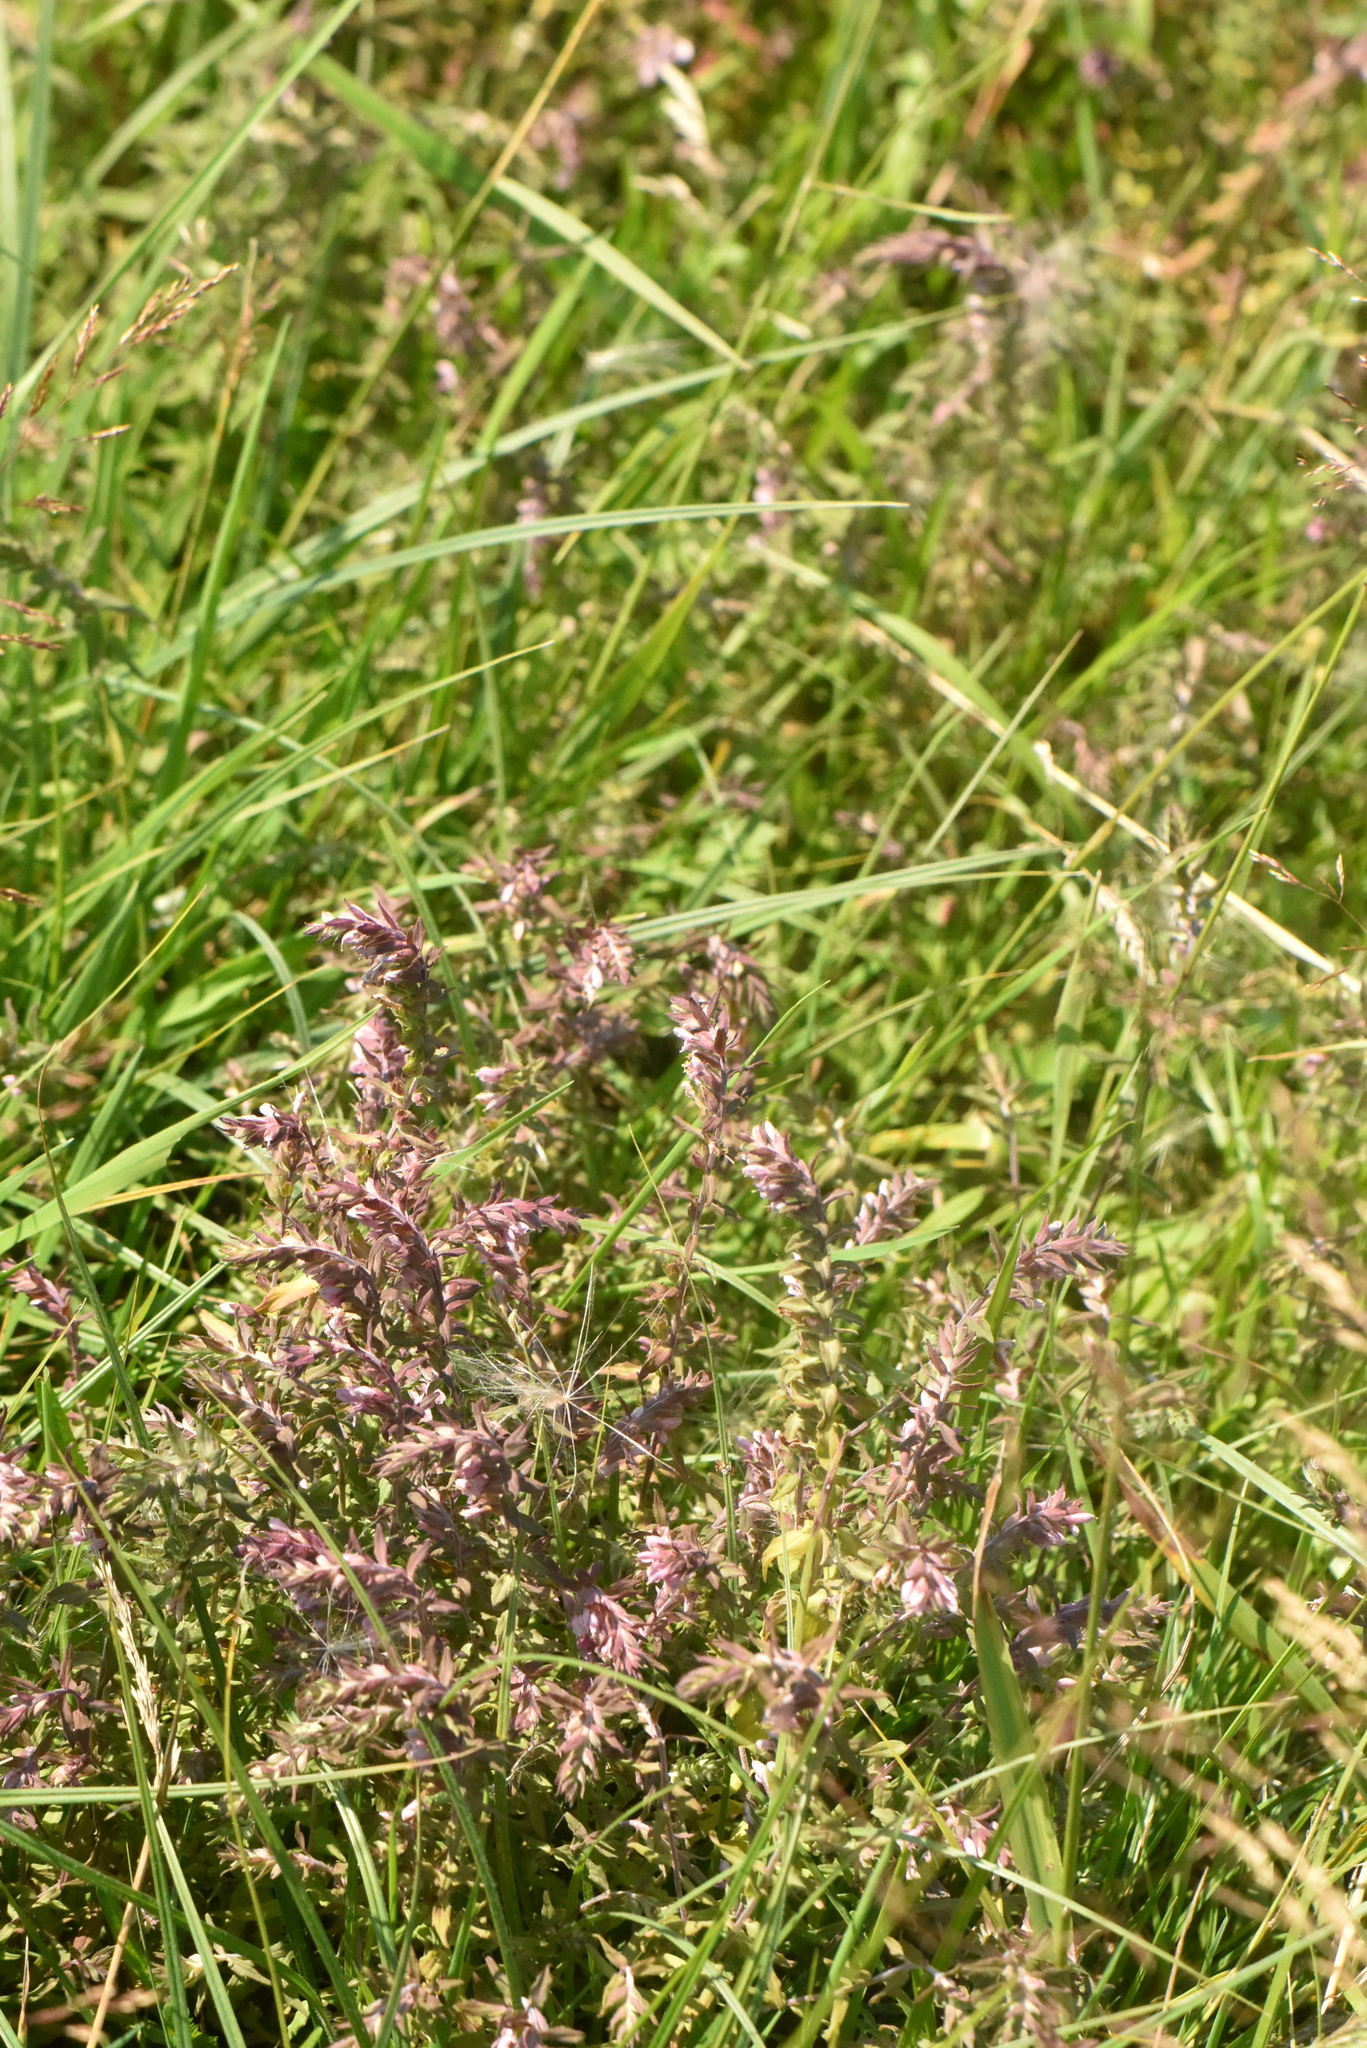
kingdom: Plantae
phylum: Tracheophyta
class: Magnoliopsida
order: Lamiales
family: Orobanchaceae
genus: Odontites
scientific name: Odontites vulgaris
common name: Broomrape
